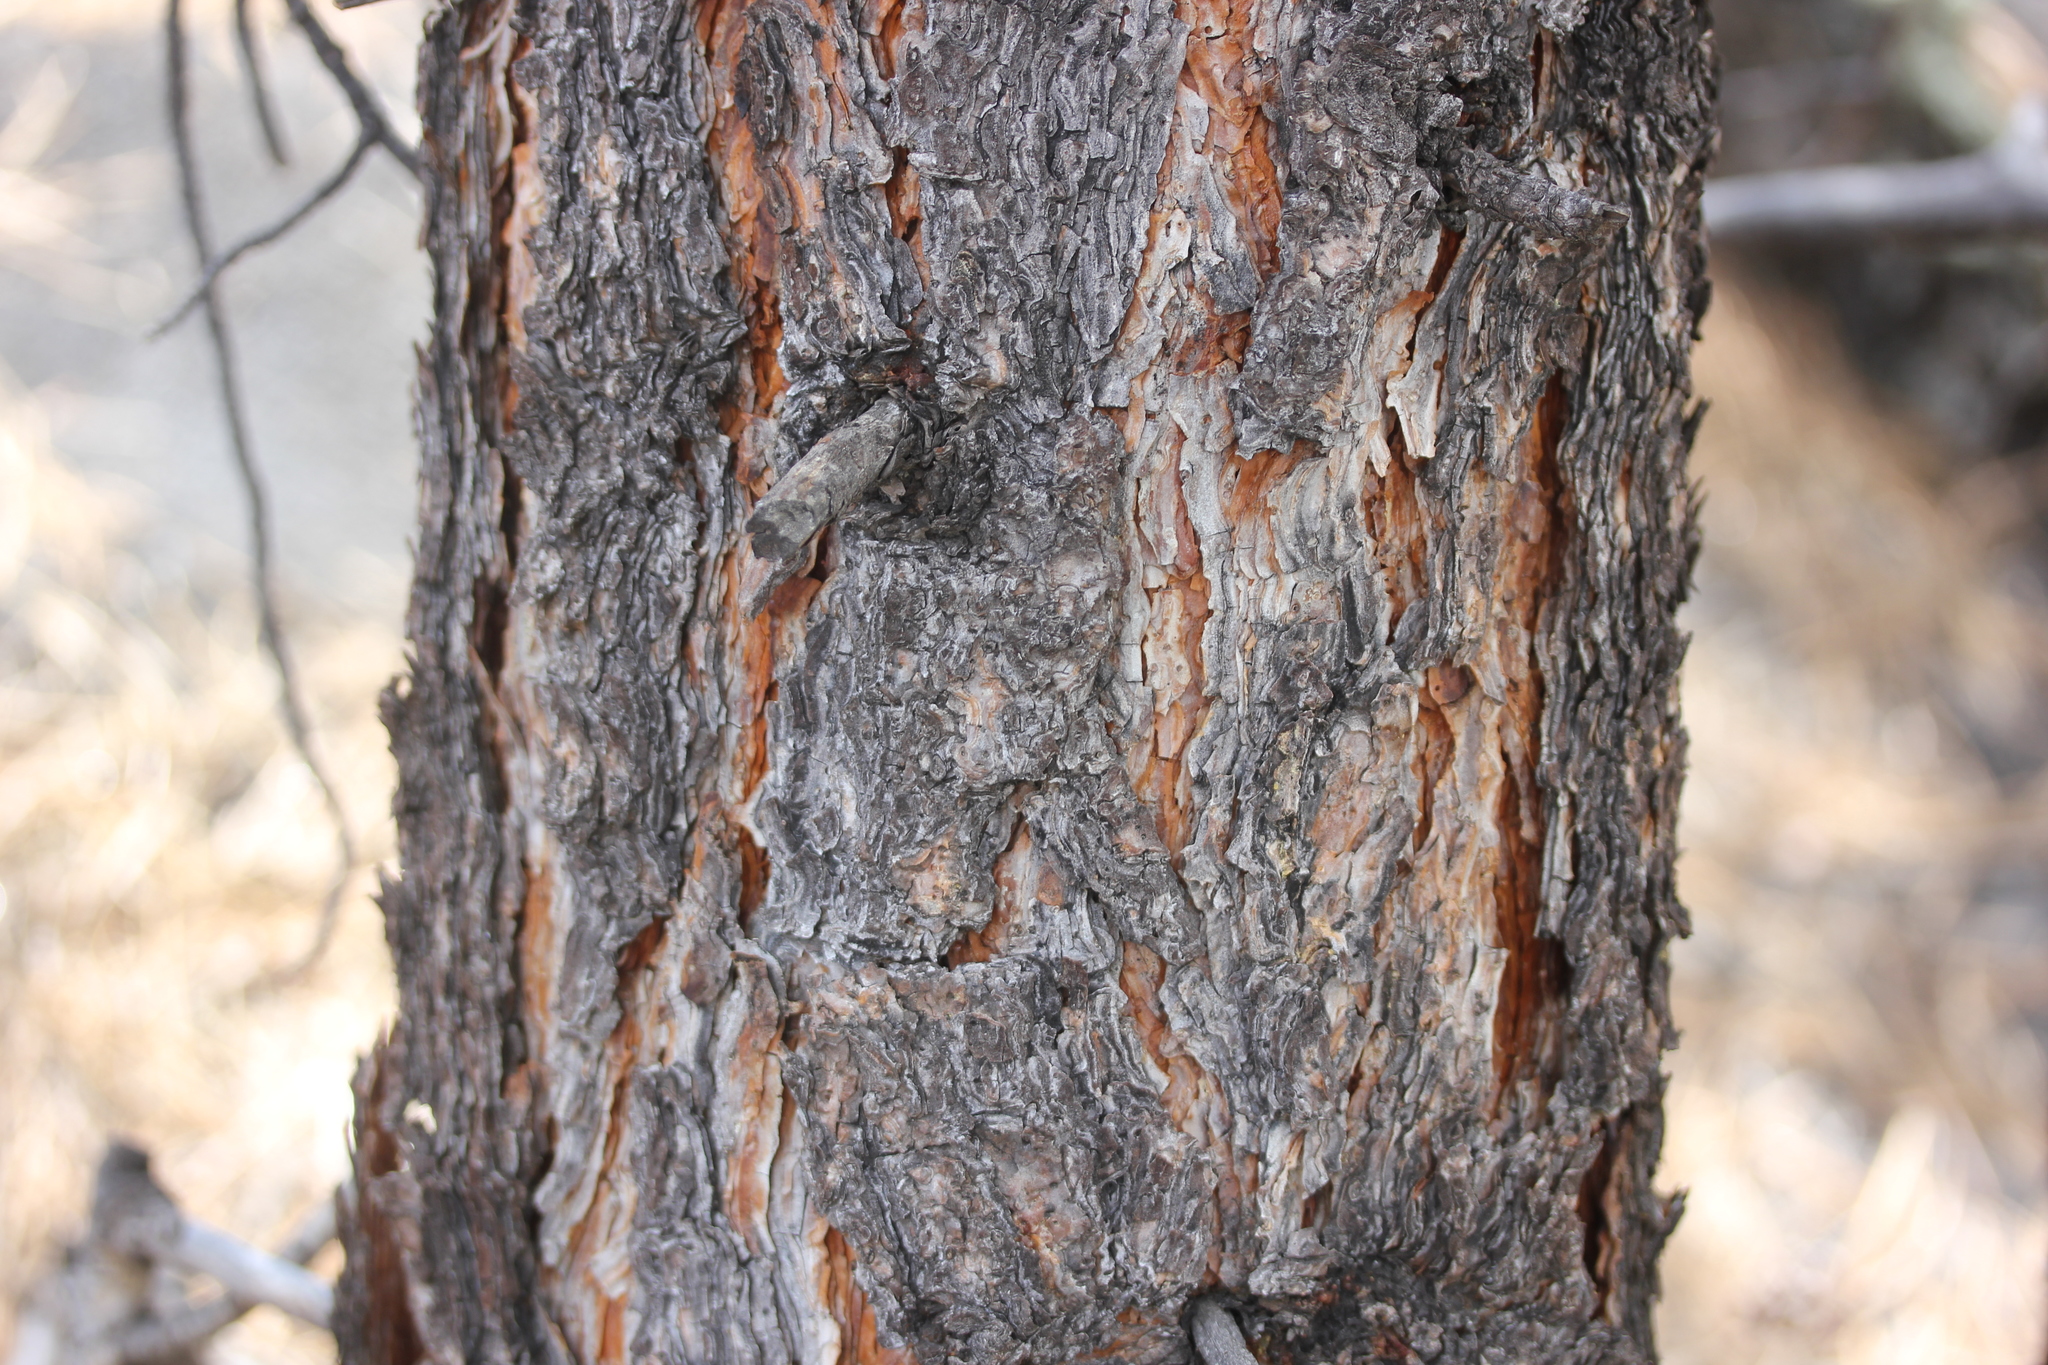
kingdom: Plantae
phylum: Tracheophyta
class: Pinopsida
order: Pinales
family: Pinaceae
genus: Pinus
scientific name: Pinus ponderosa
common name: Western yellow-pine
